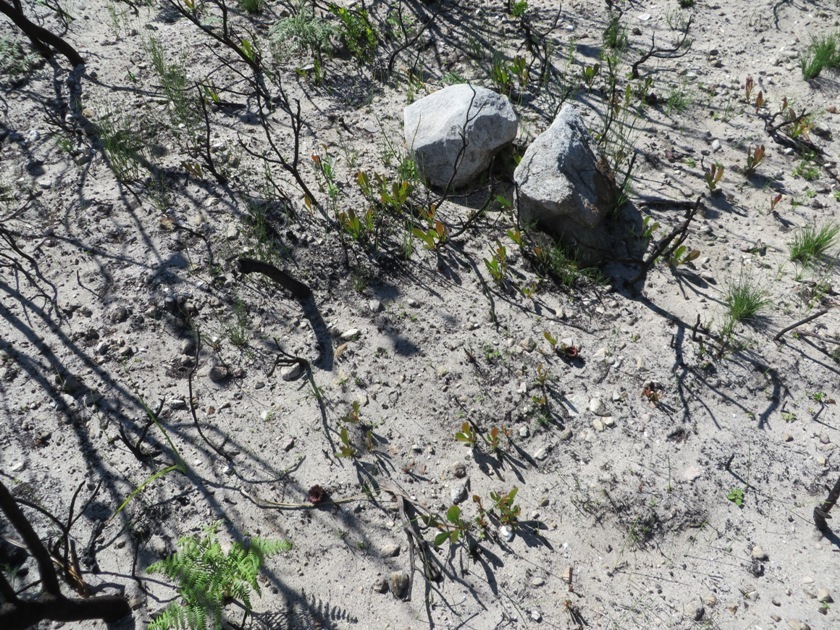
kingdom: Plantae
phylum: Tracheophyta
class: Magnoliopsida
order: Proteales
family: Proteaceae
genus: Protea
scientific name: Protea acaulos
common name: Common ground sugarbush
